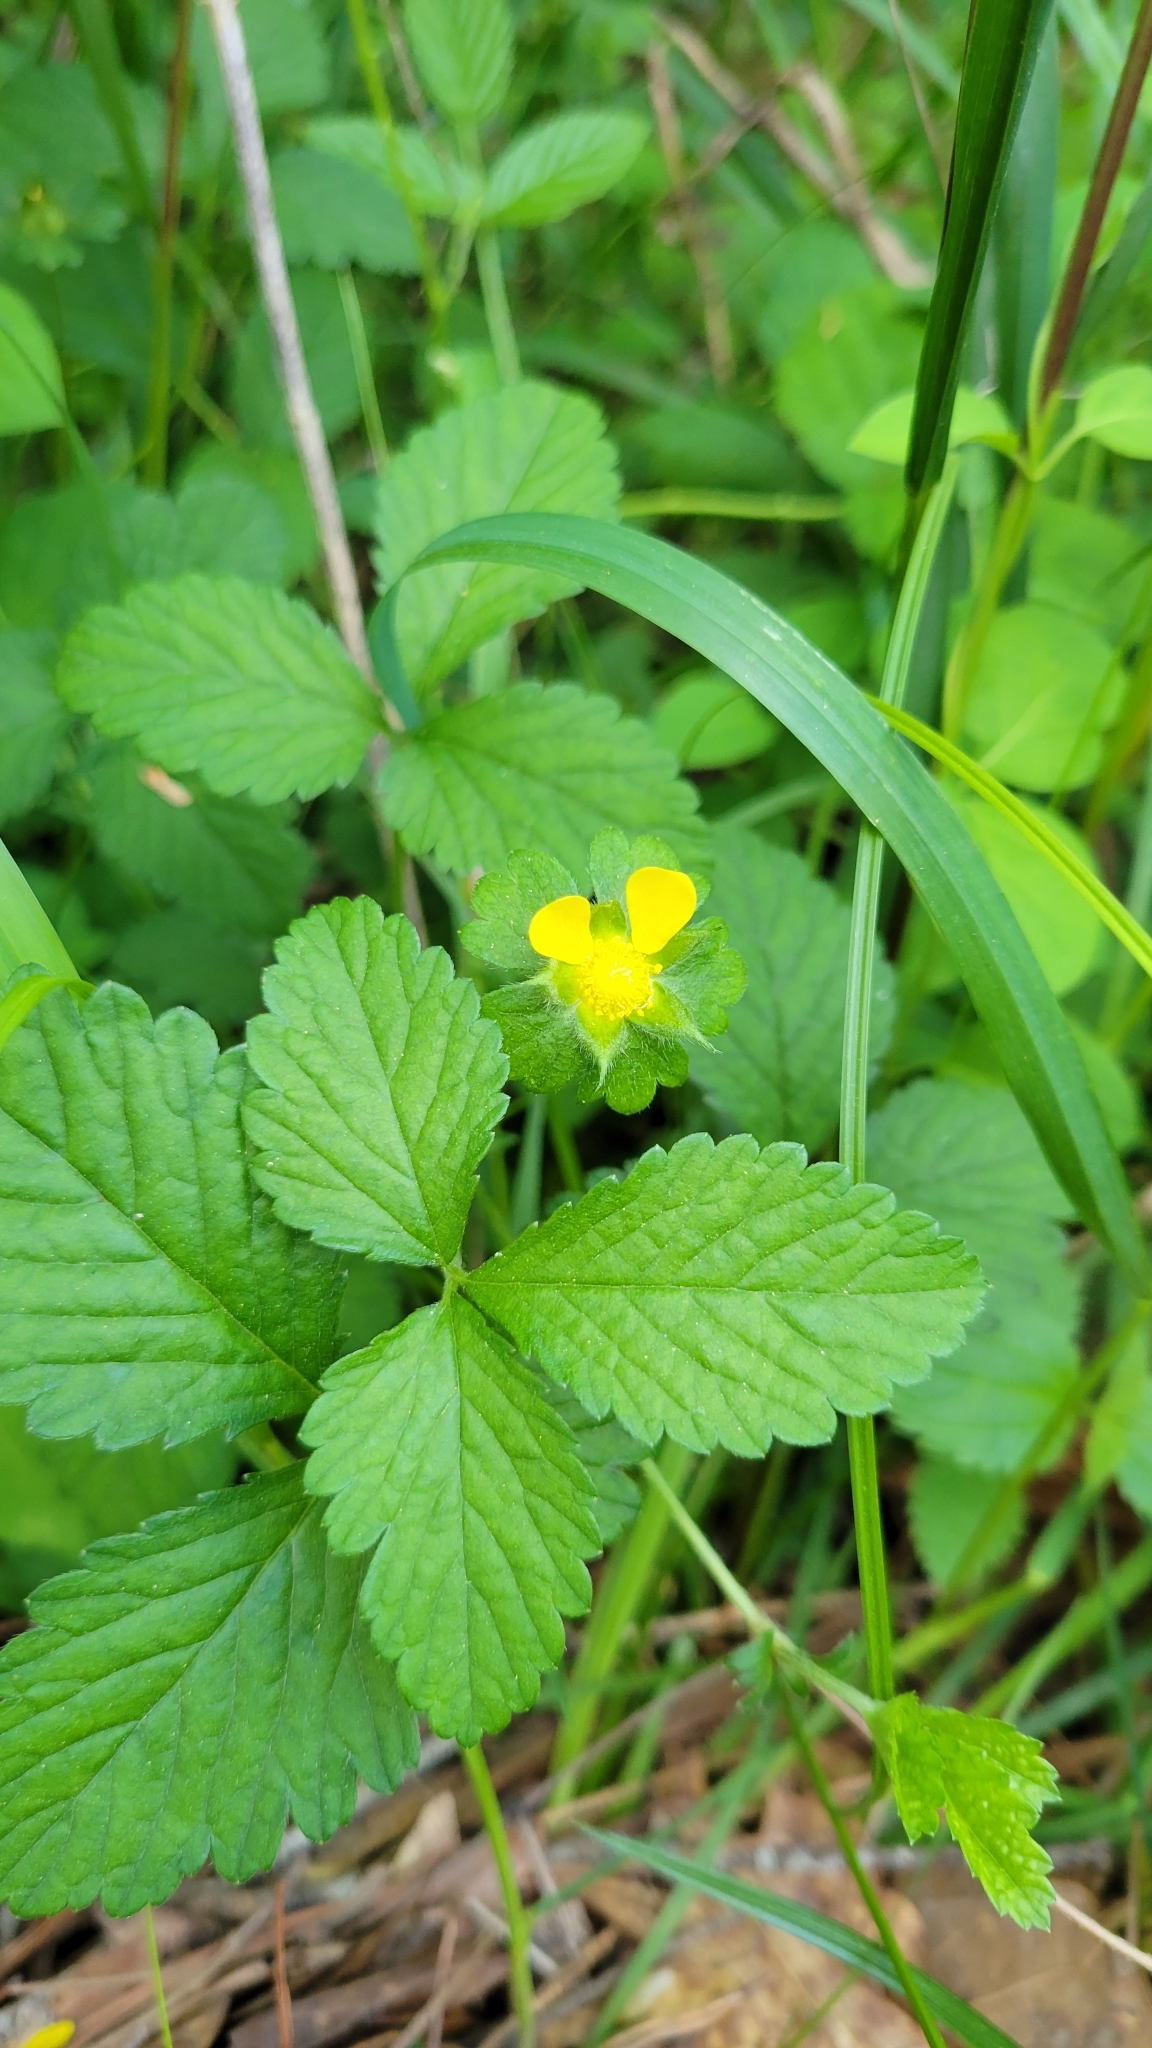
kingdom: Plantae
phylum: Tracheophyta
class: Magnoliopsida
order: Rosales
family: Rosaceae
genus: Potentilla
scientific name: Potentilla indica
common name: Yellow-flowered strawberry
